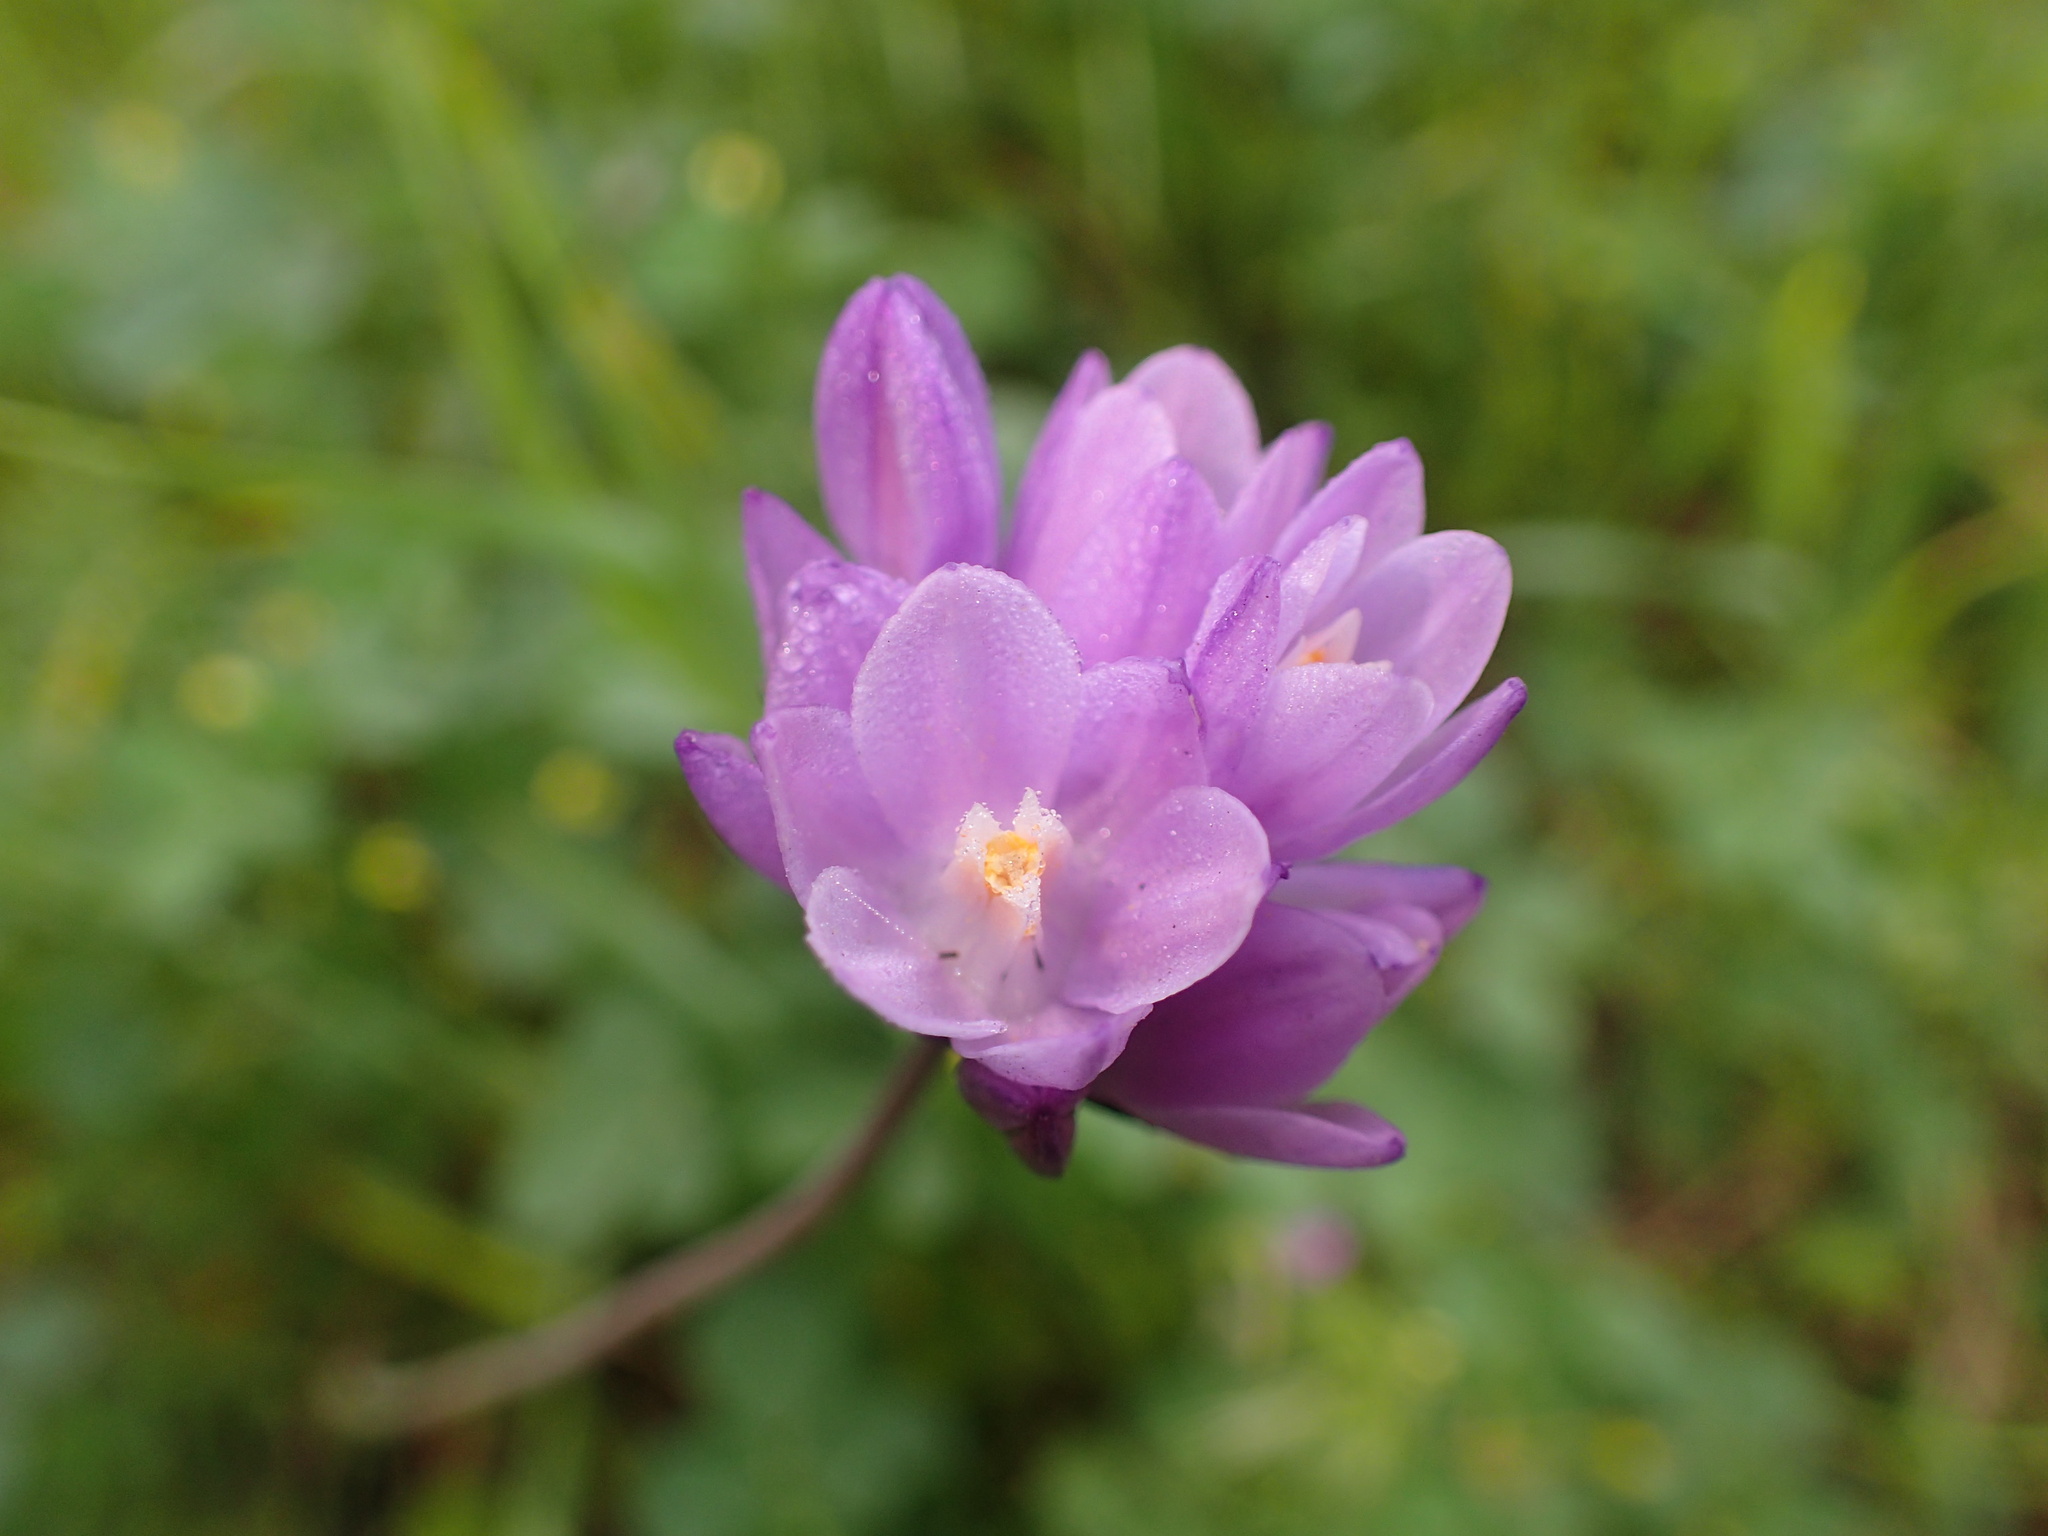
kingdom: Plantae
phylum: Tracheophyta
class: Liliopsida
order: Asparagales
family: Asparagaceae
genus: Dipterostemon
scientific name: Dipterostemon capitatus
